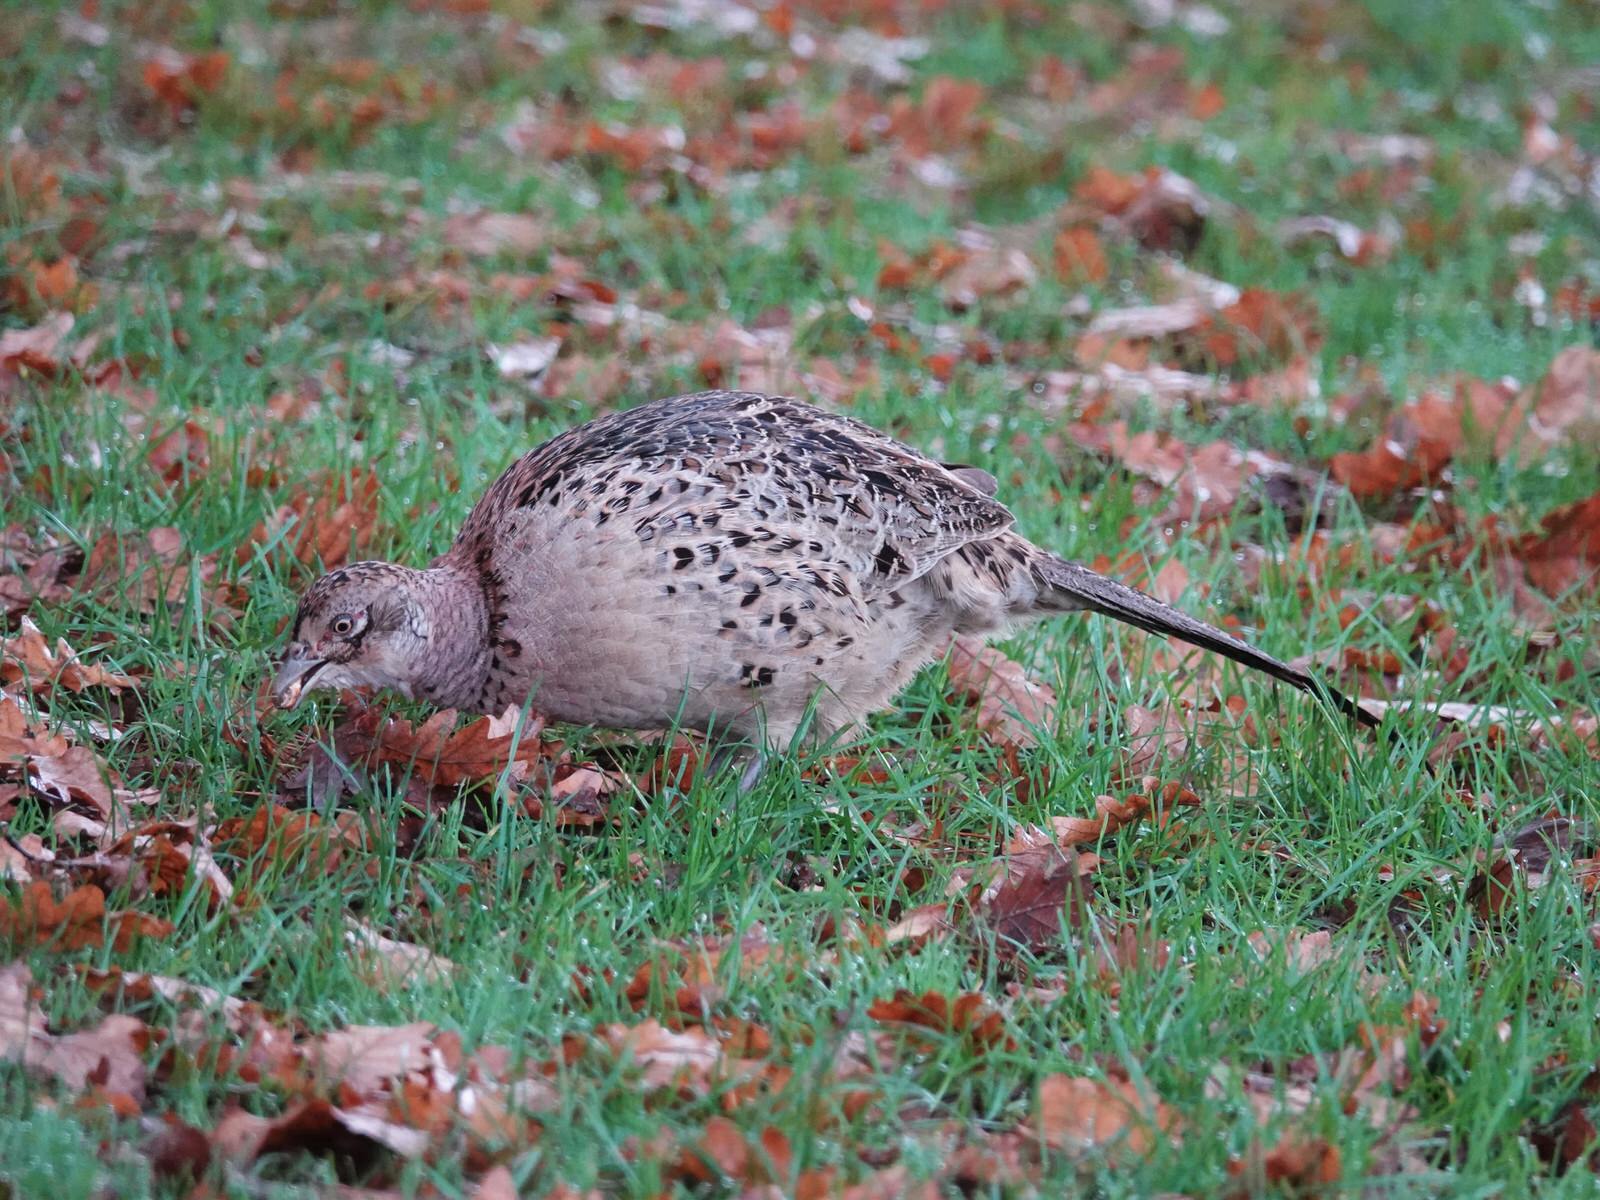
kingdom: Animalia
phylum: Chordata
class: Aves
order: Galliformes
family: Phasianidae
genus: Phasianus
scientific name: Phasianus colchicus
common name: Common pheasant
